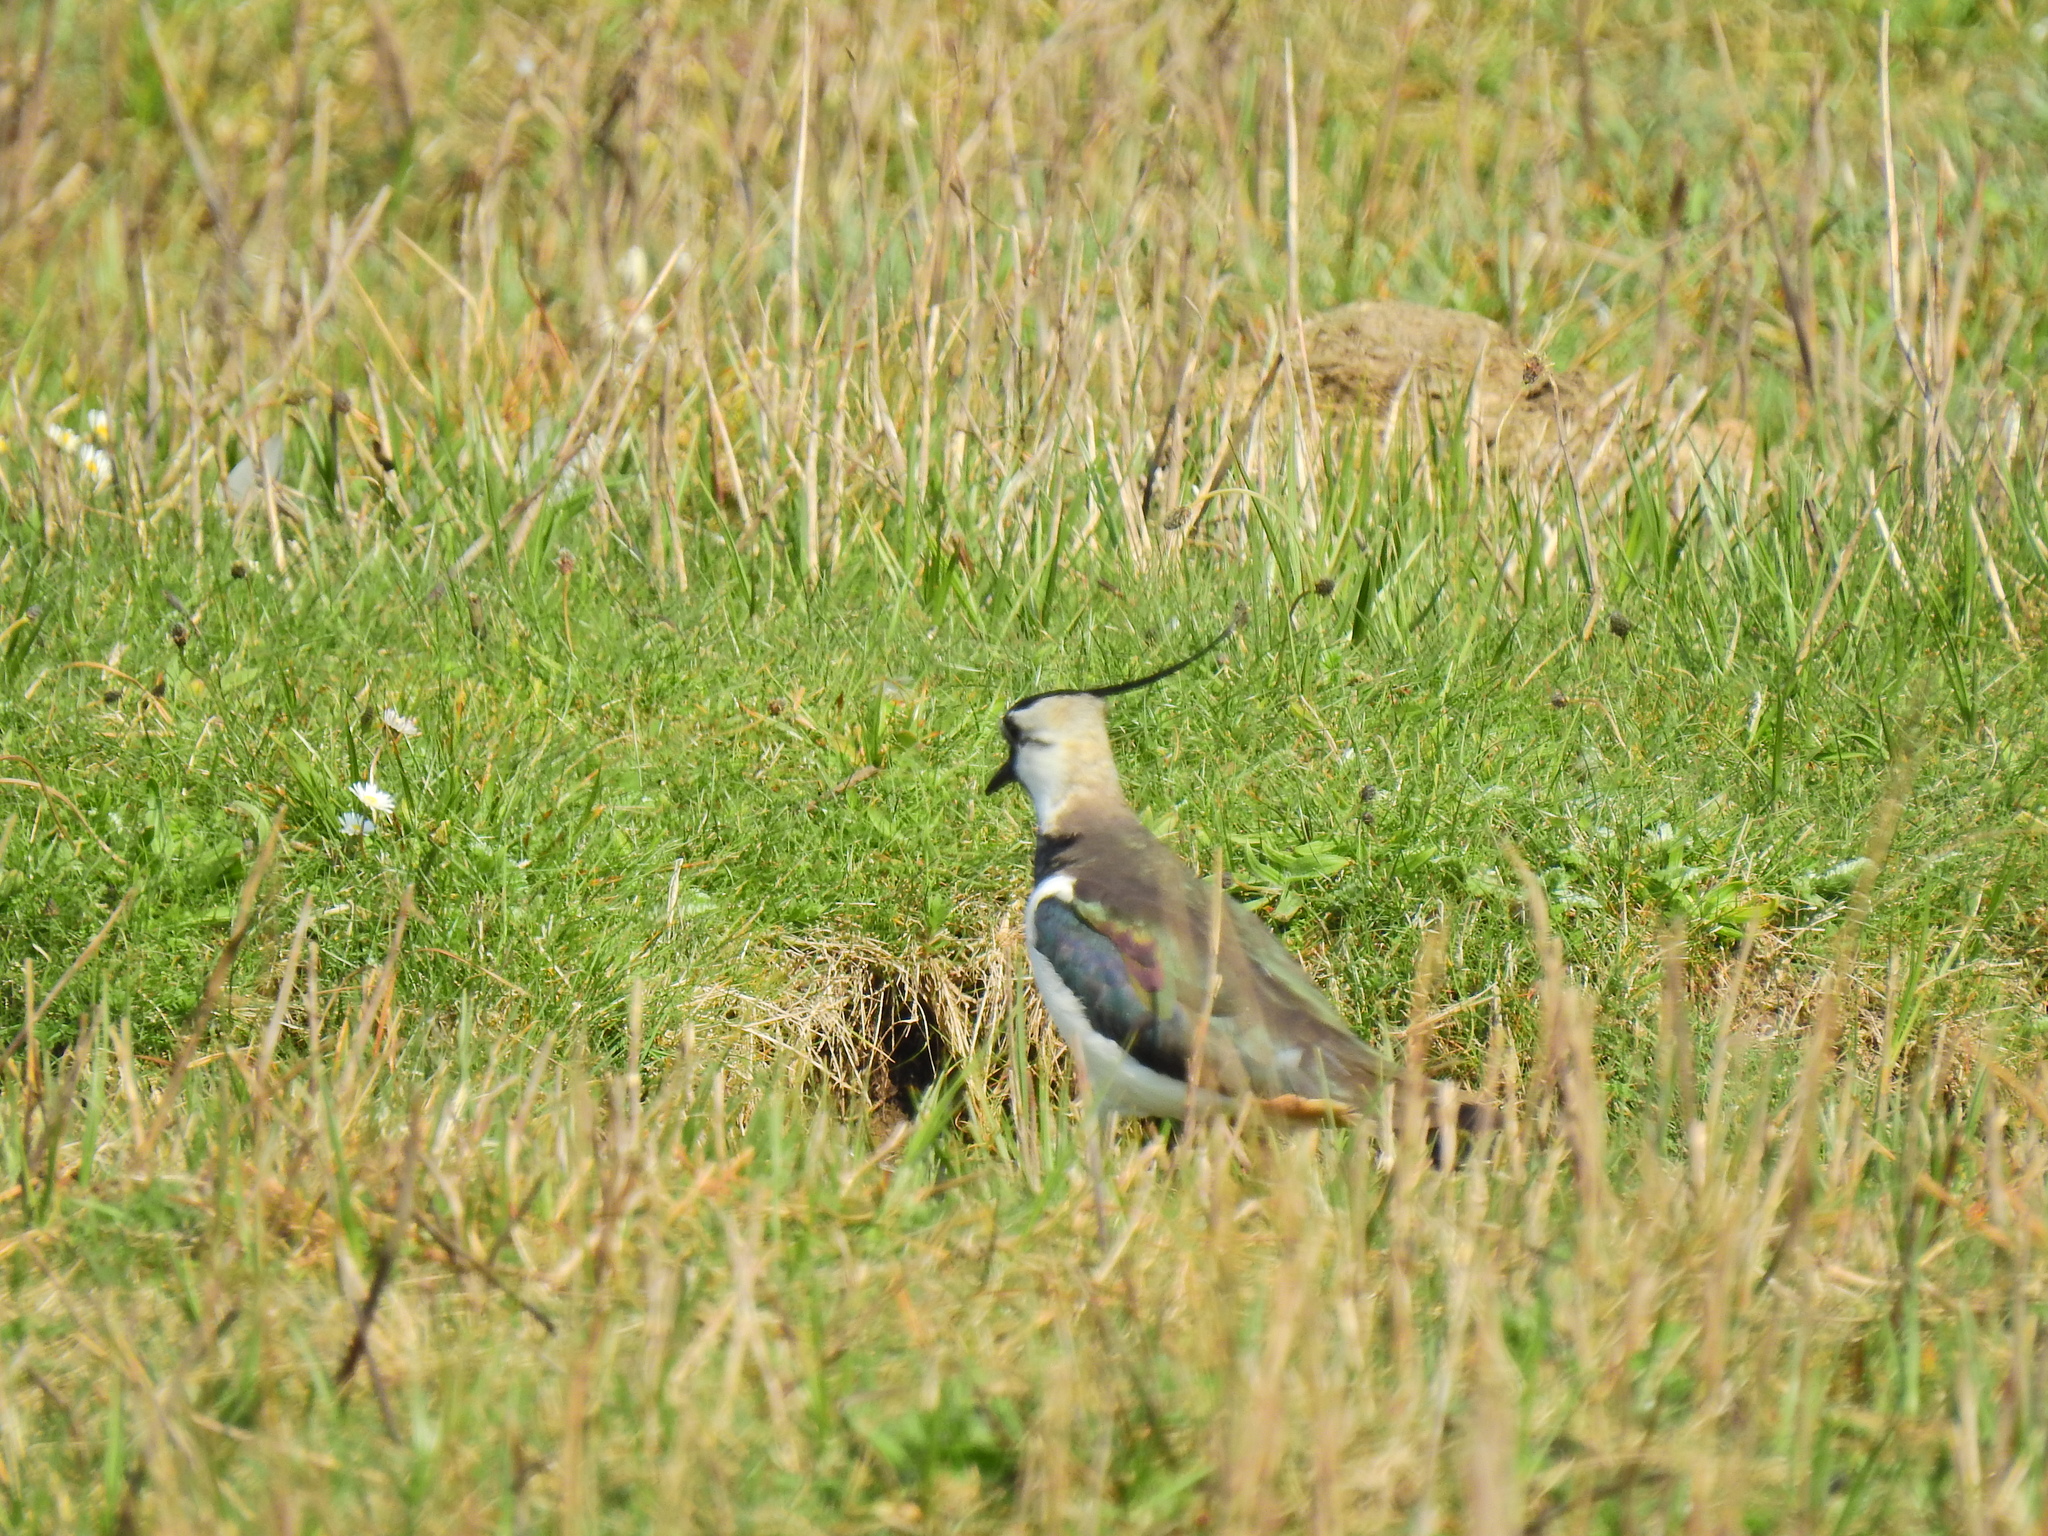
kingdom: Animalia
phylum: Chordata
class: Aves
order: Charadriiformes
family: Charadriidae
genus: Vanellus
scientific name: Vanellus vanellus
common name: Northern lapwing
